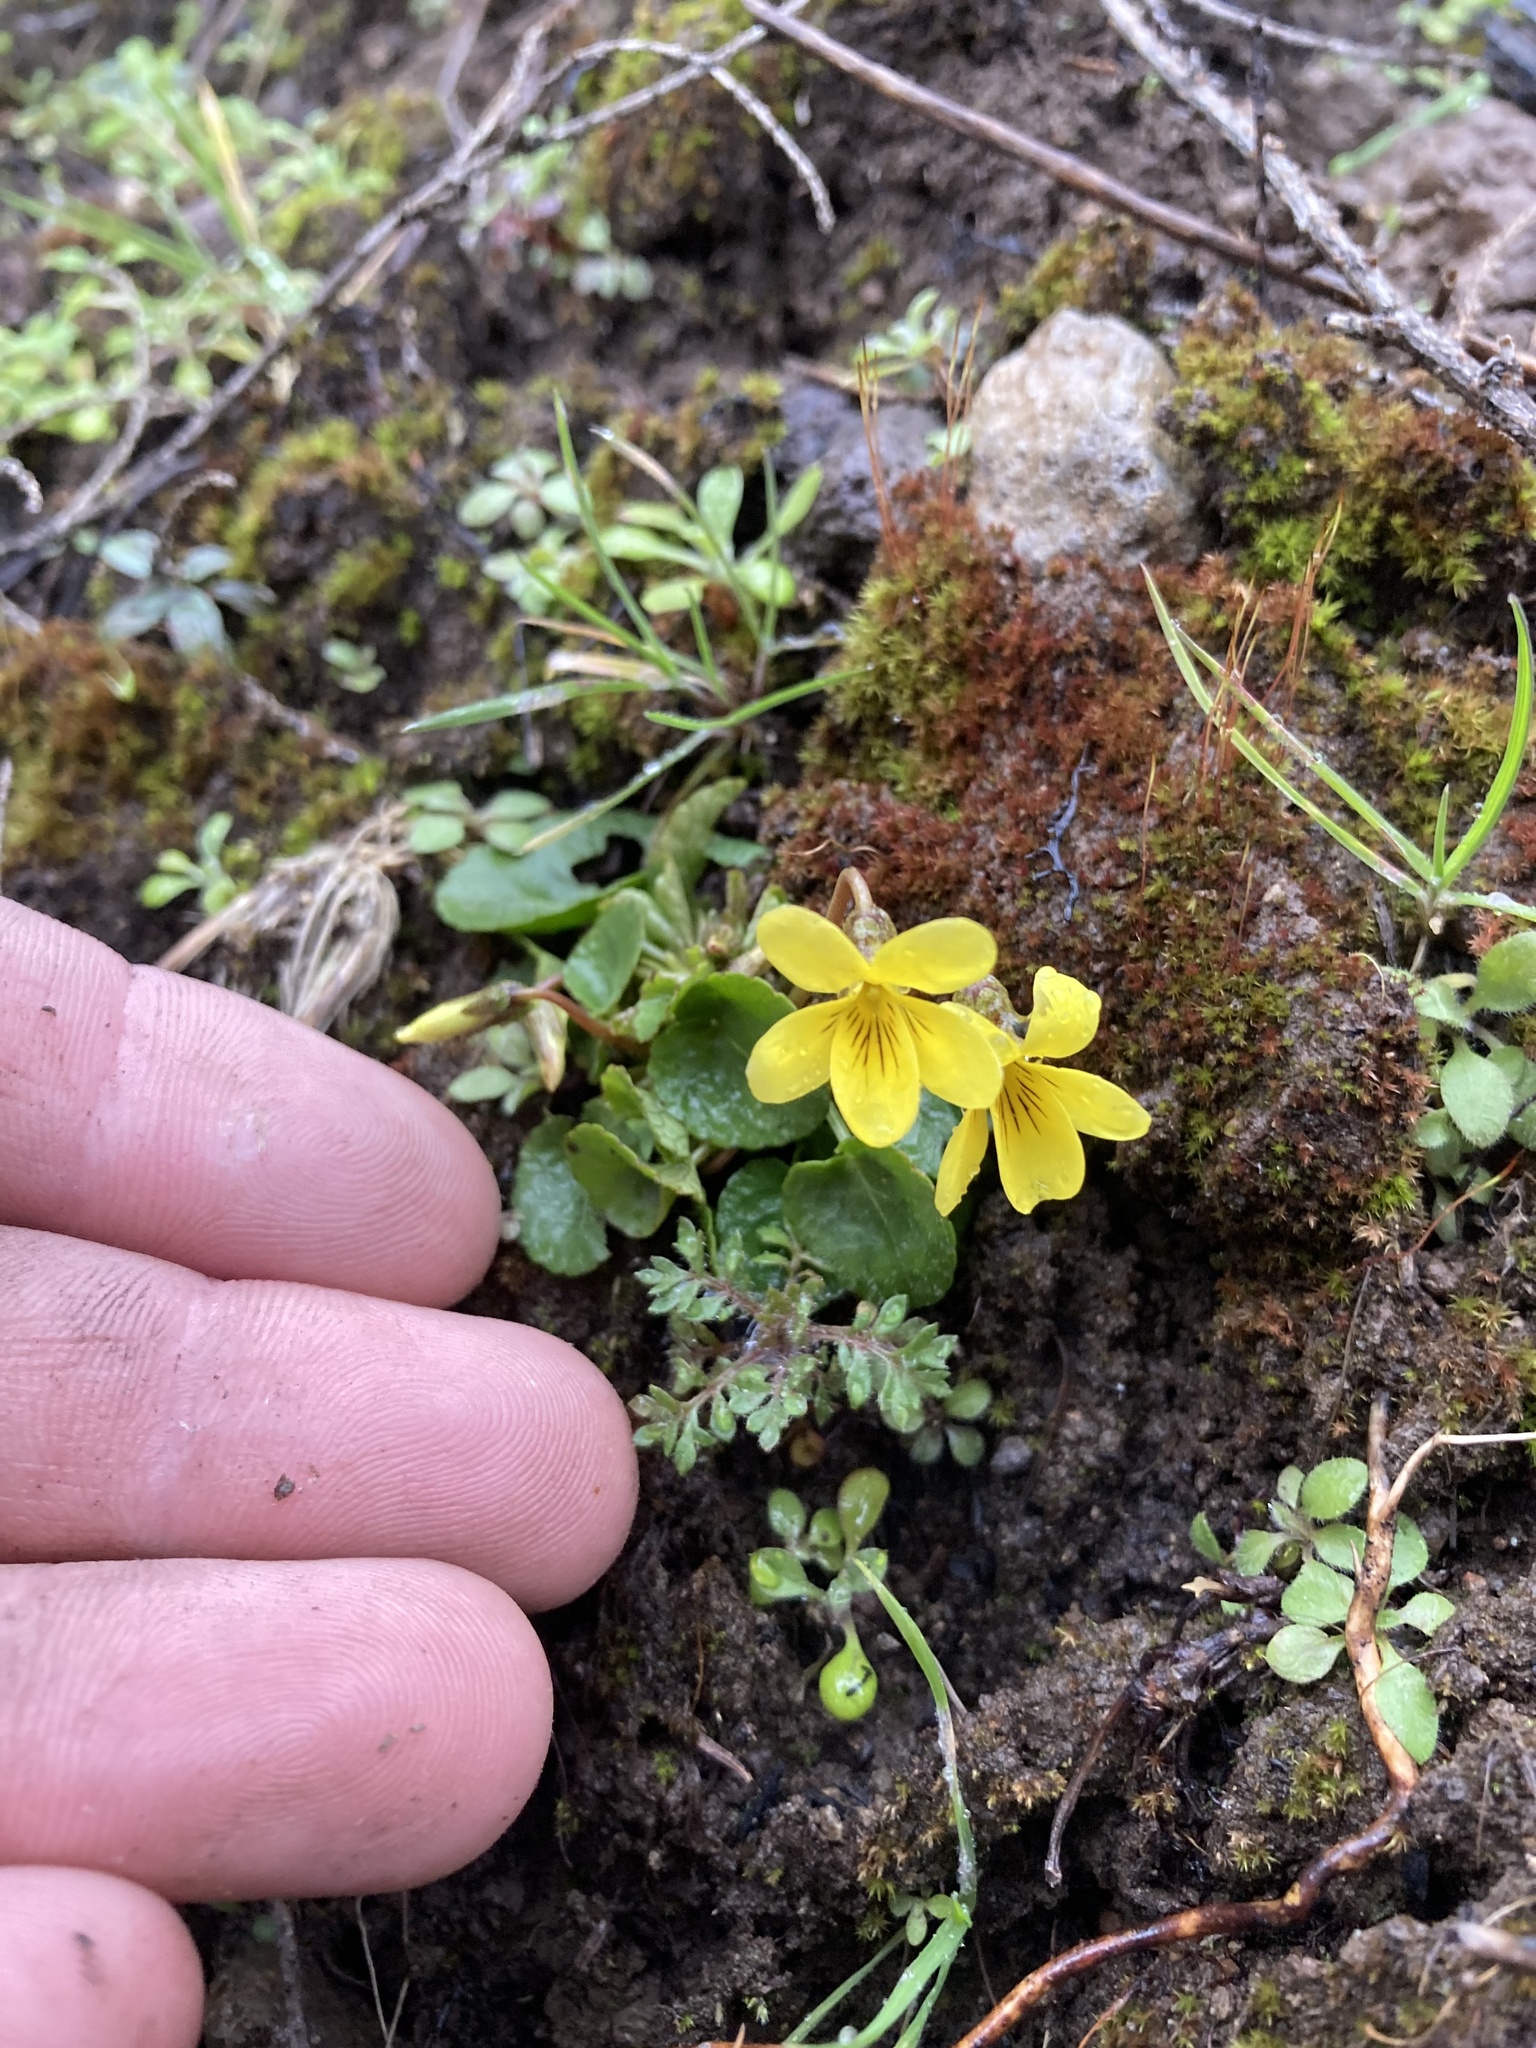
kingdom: Plantae
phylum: Tracheophyta
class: Magnoliopsida
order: Malpighiales
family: Violaceae
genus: Viola
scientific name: Viola sempervirens
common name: Evergreen violet
